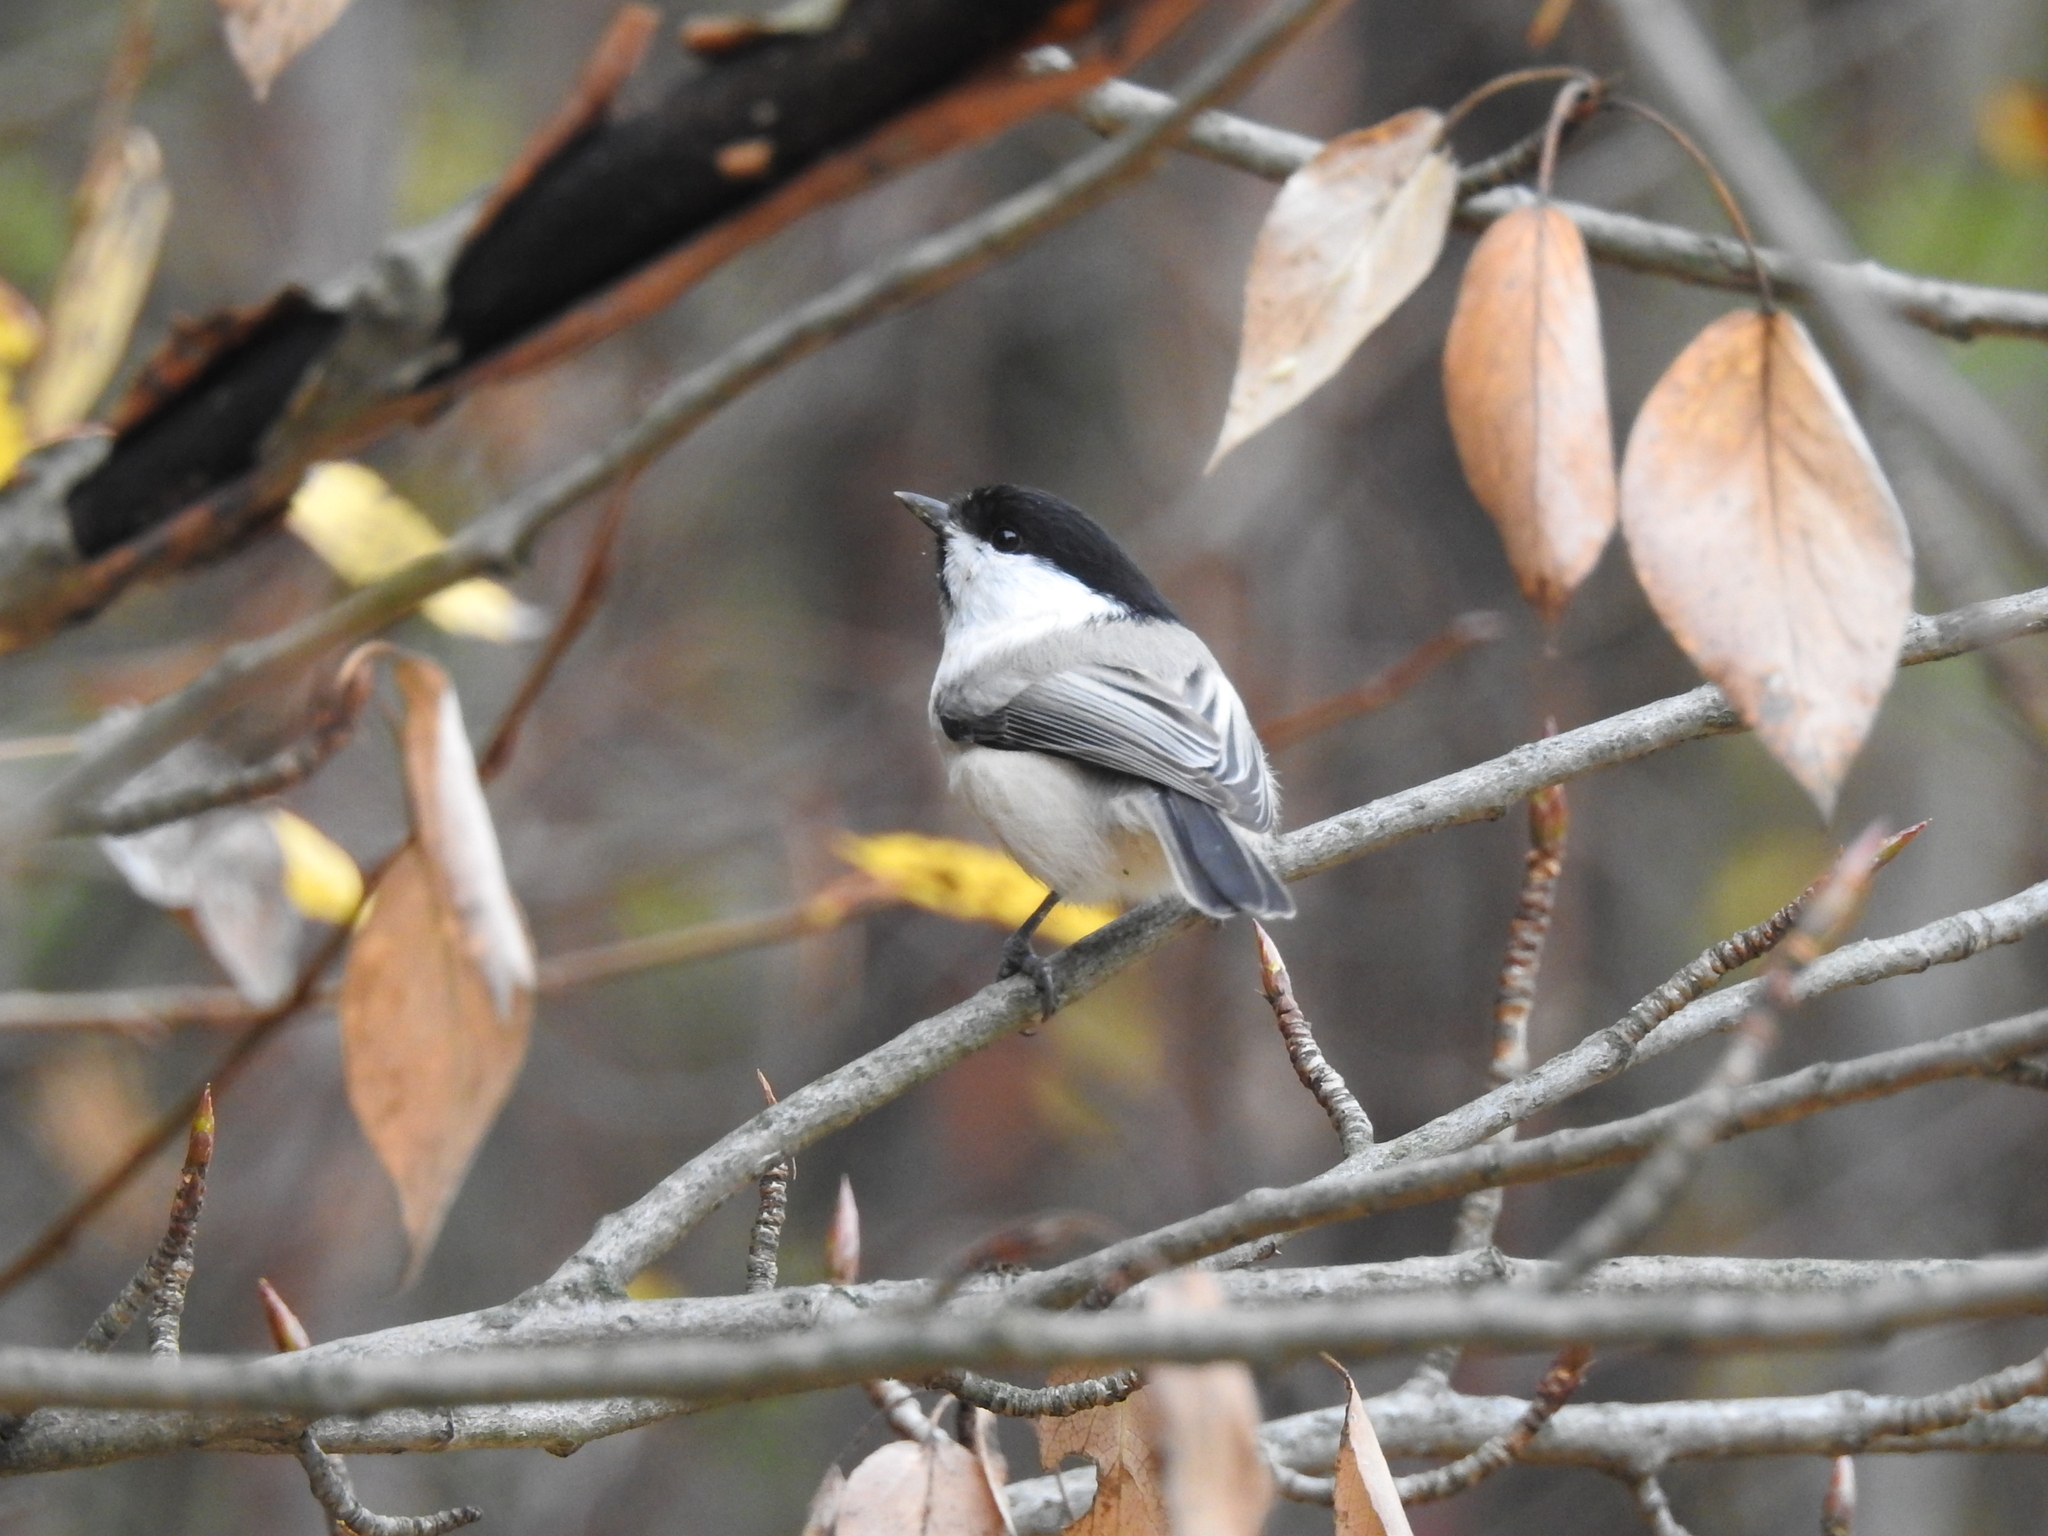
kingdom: Animalia
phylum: Chordata
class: Aves
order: Passeriformes
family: Paridae
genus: Poecile
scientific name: Poecile montanus
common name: Willow tit
